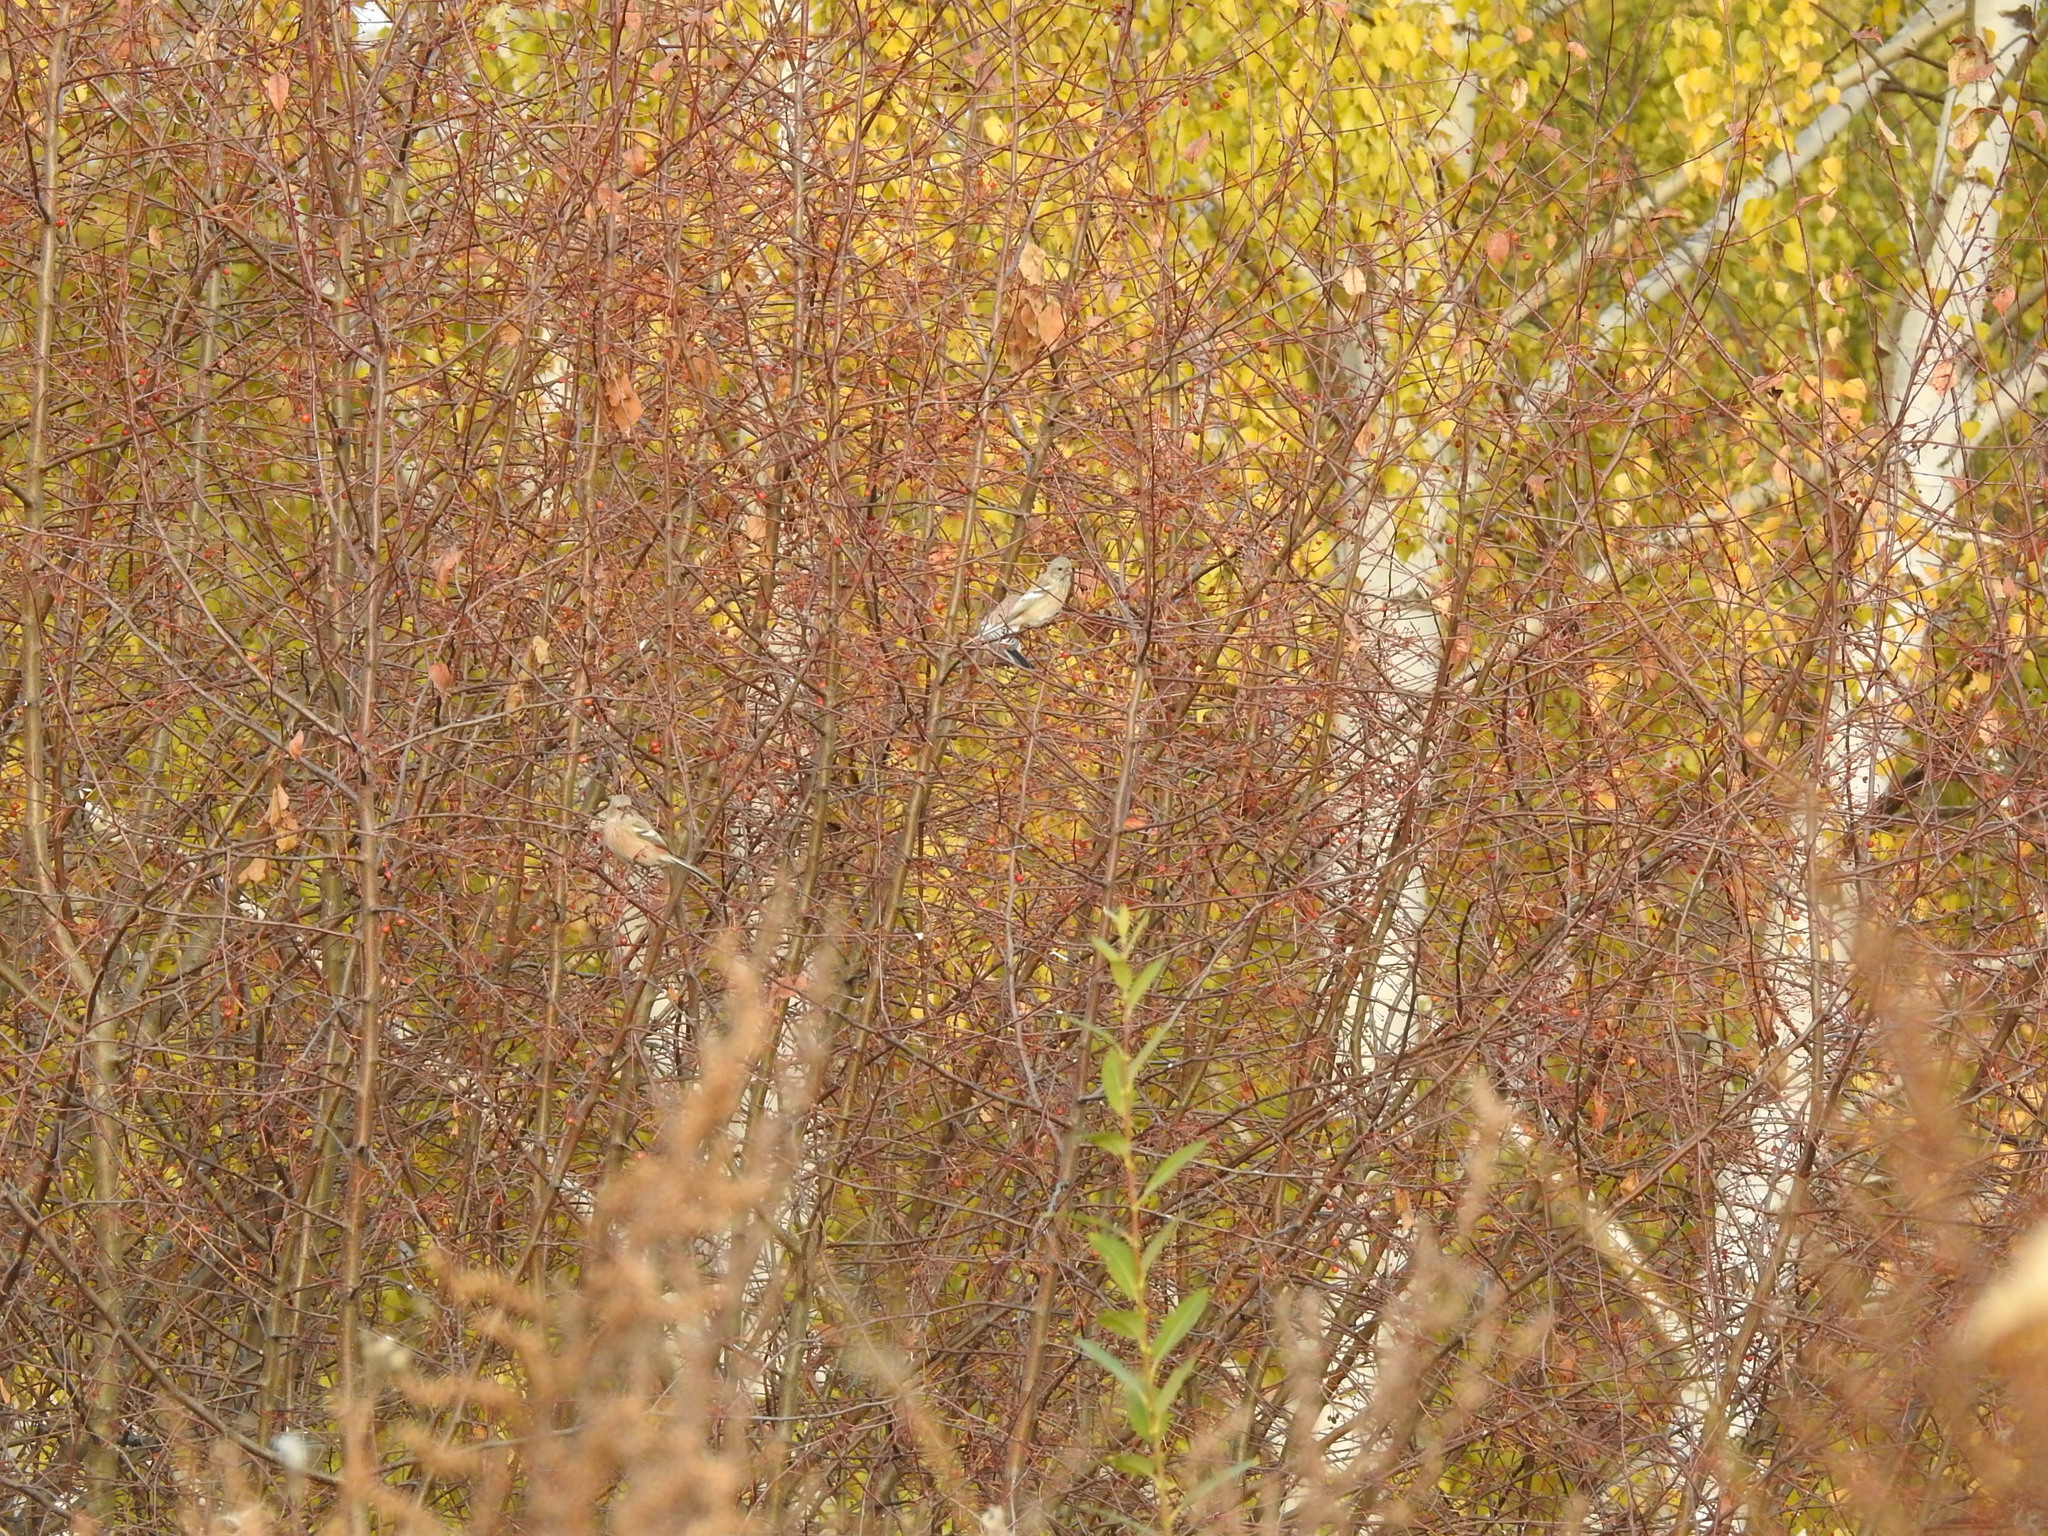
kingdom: Animalia
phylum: Chordata
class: Aves
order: Passeriformes
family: Fringillidae
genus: Carpodacus
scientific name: Carpodacus sibiricus
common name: Long-tailed rosefinch
